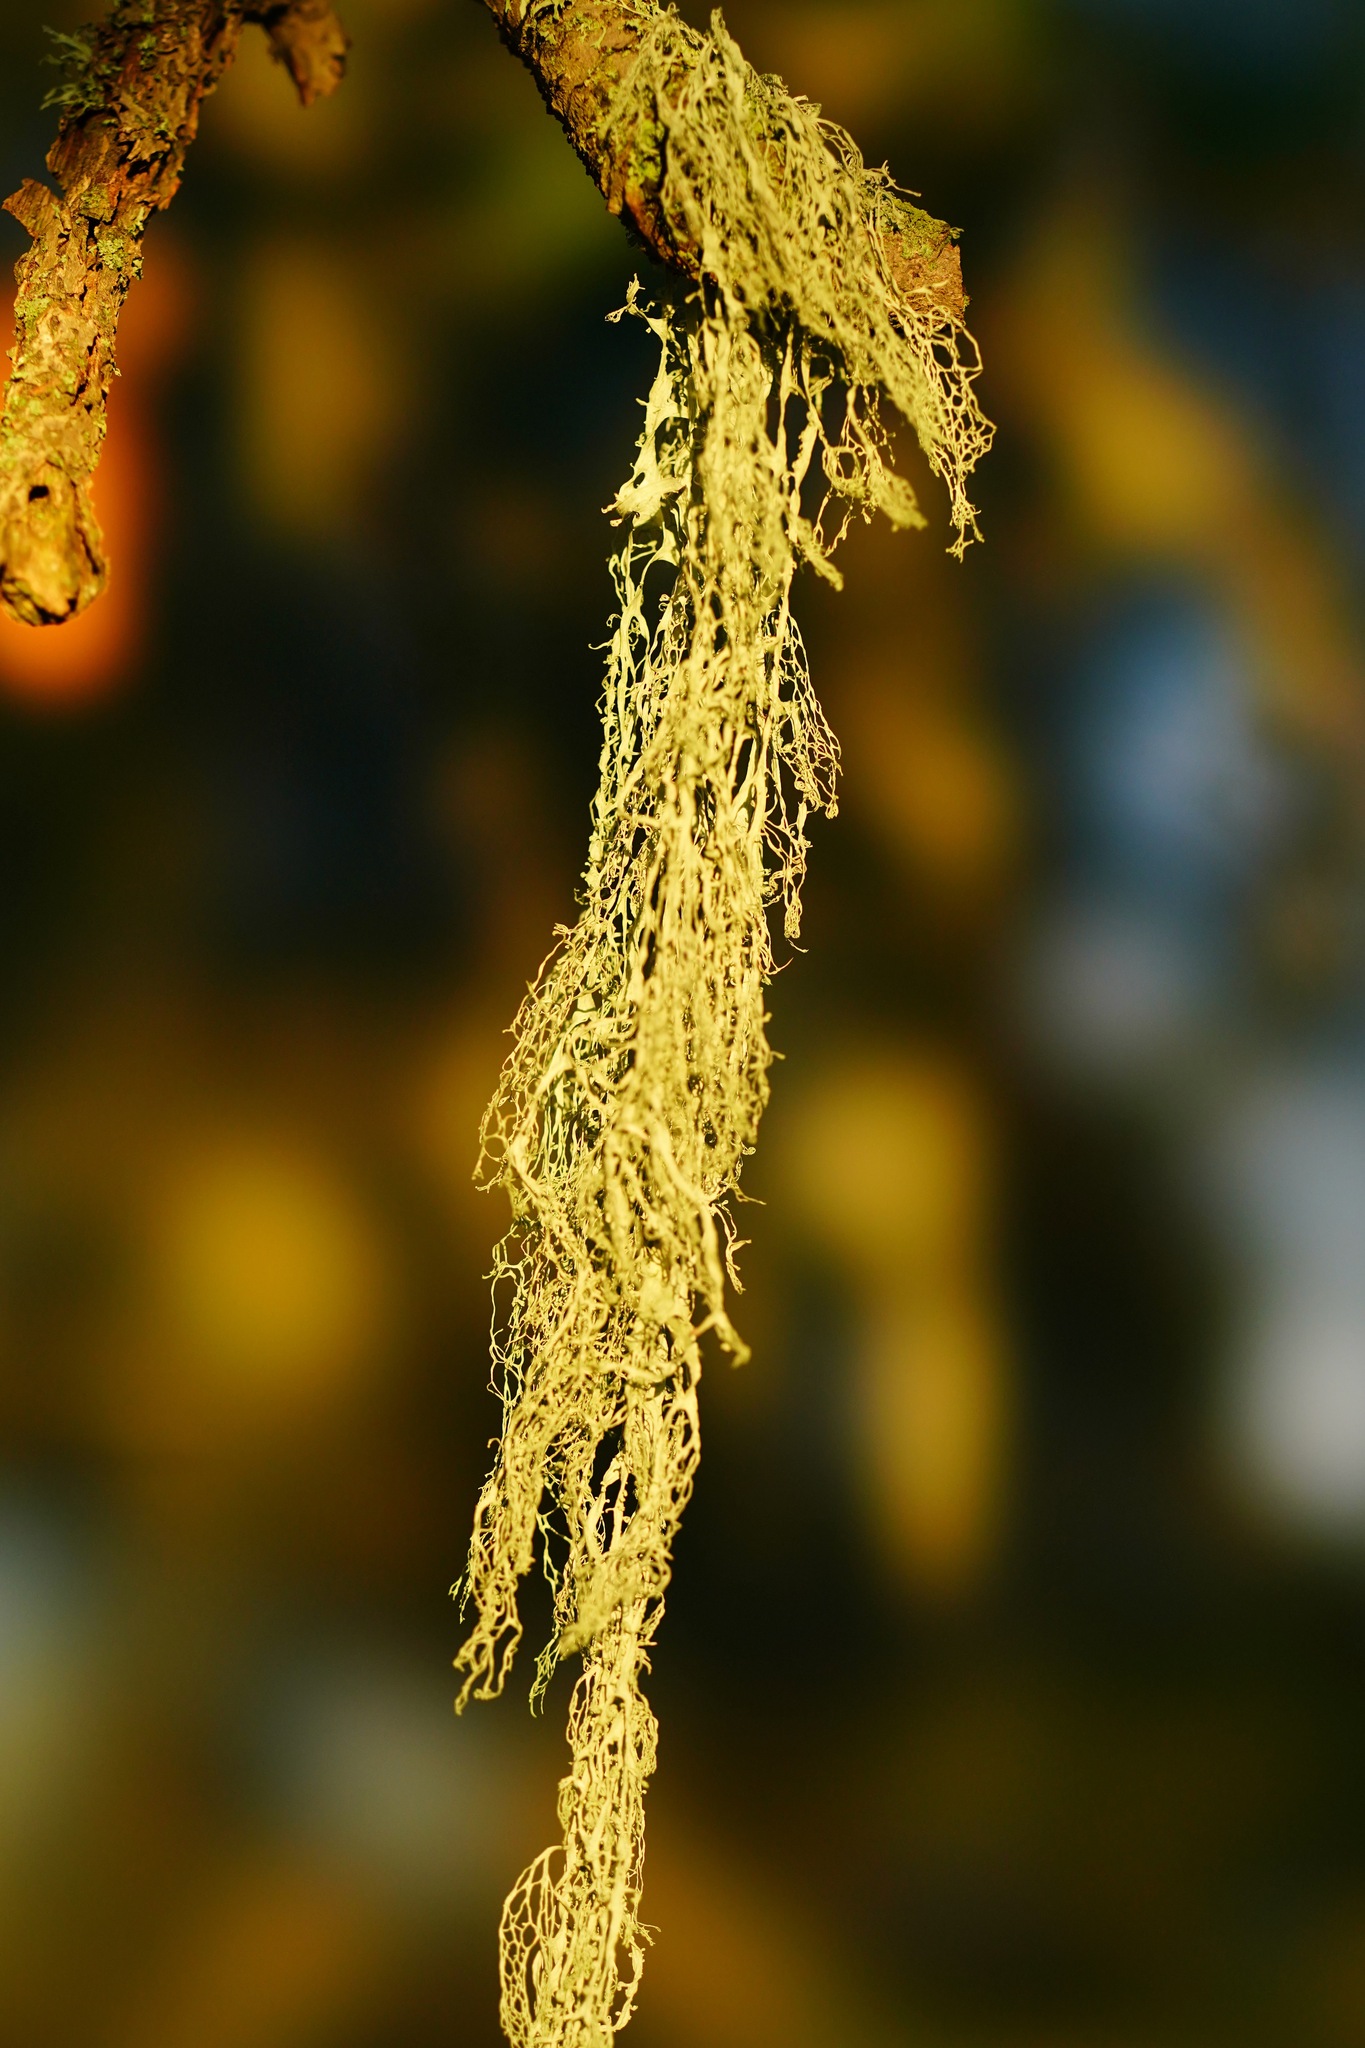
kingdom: Fungi
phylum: Ascomycota
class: Lecanoromycetes
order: Lecanorales
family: Ramalinaceae
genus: Ramalina
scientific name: Ramalina menziesii
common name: Lace lichen
